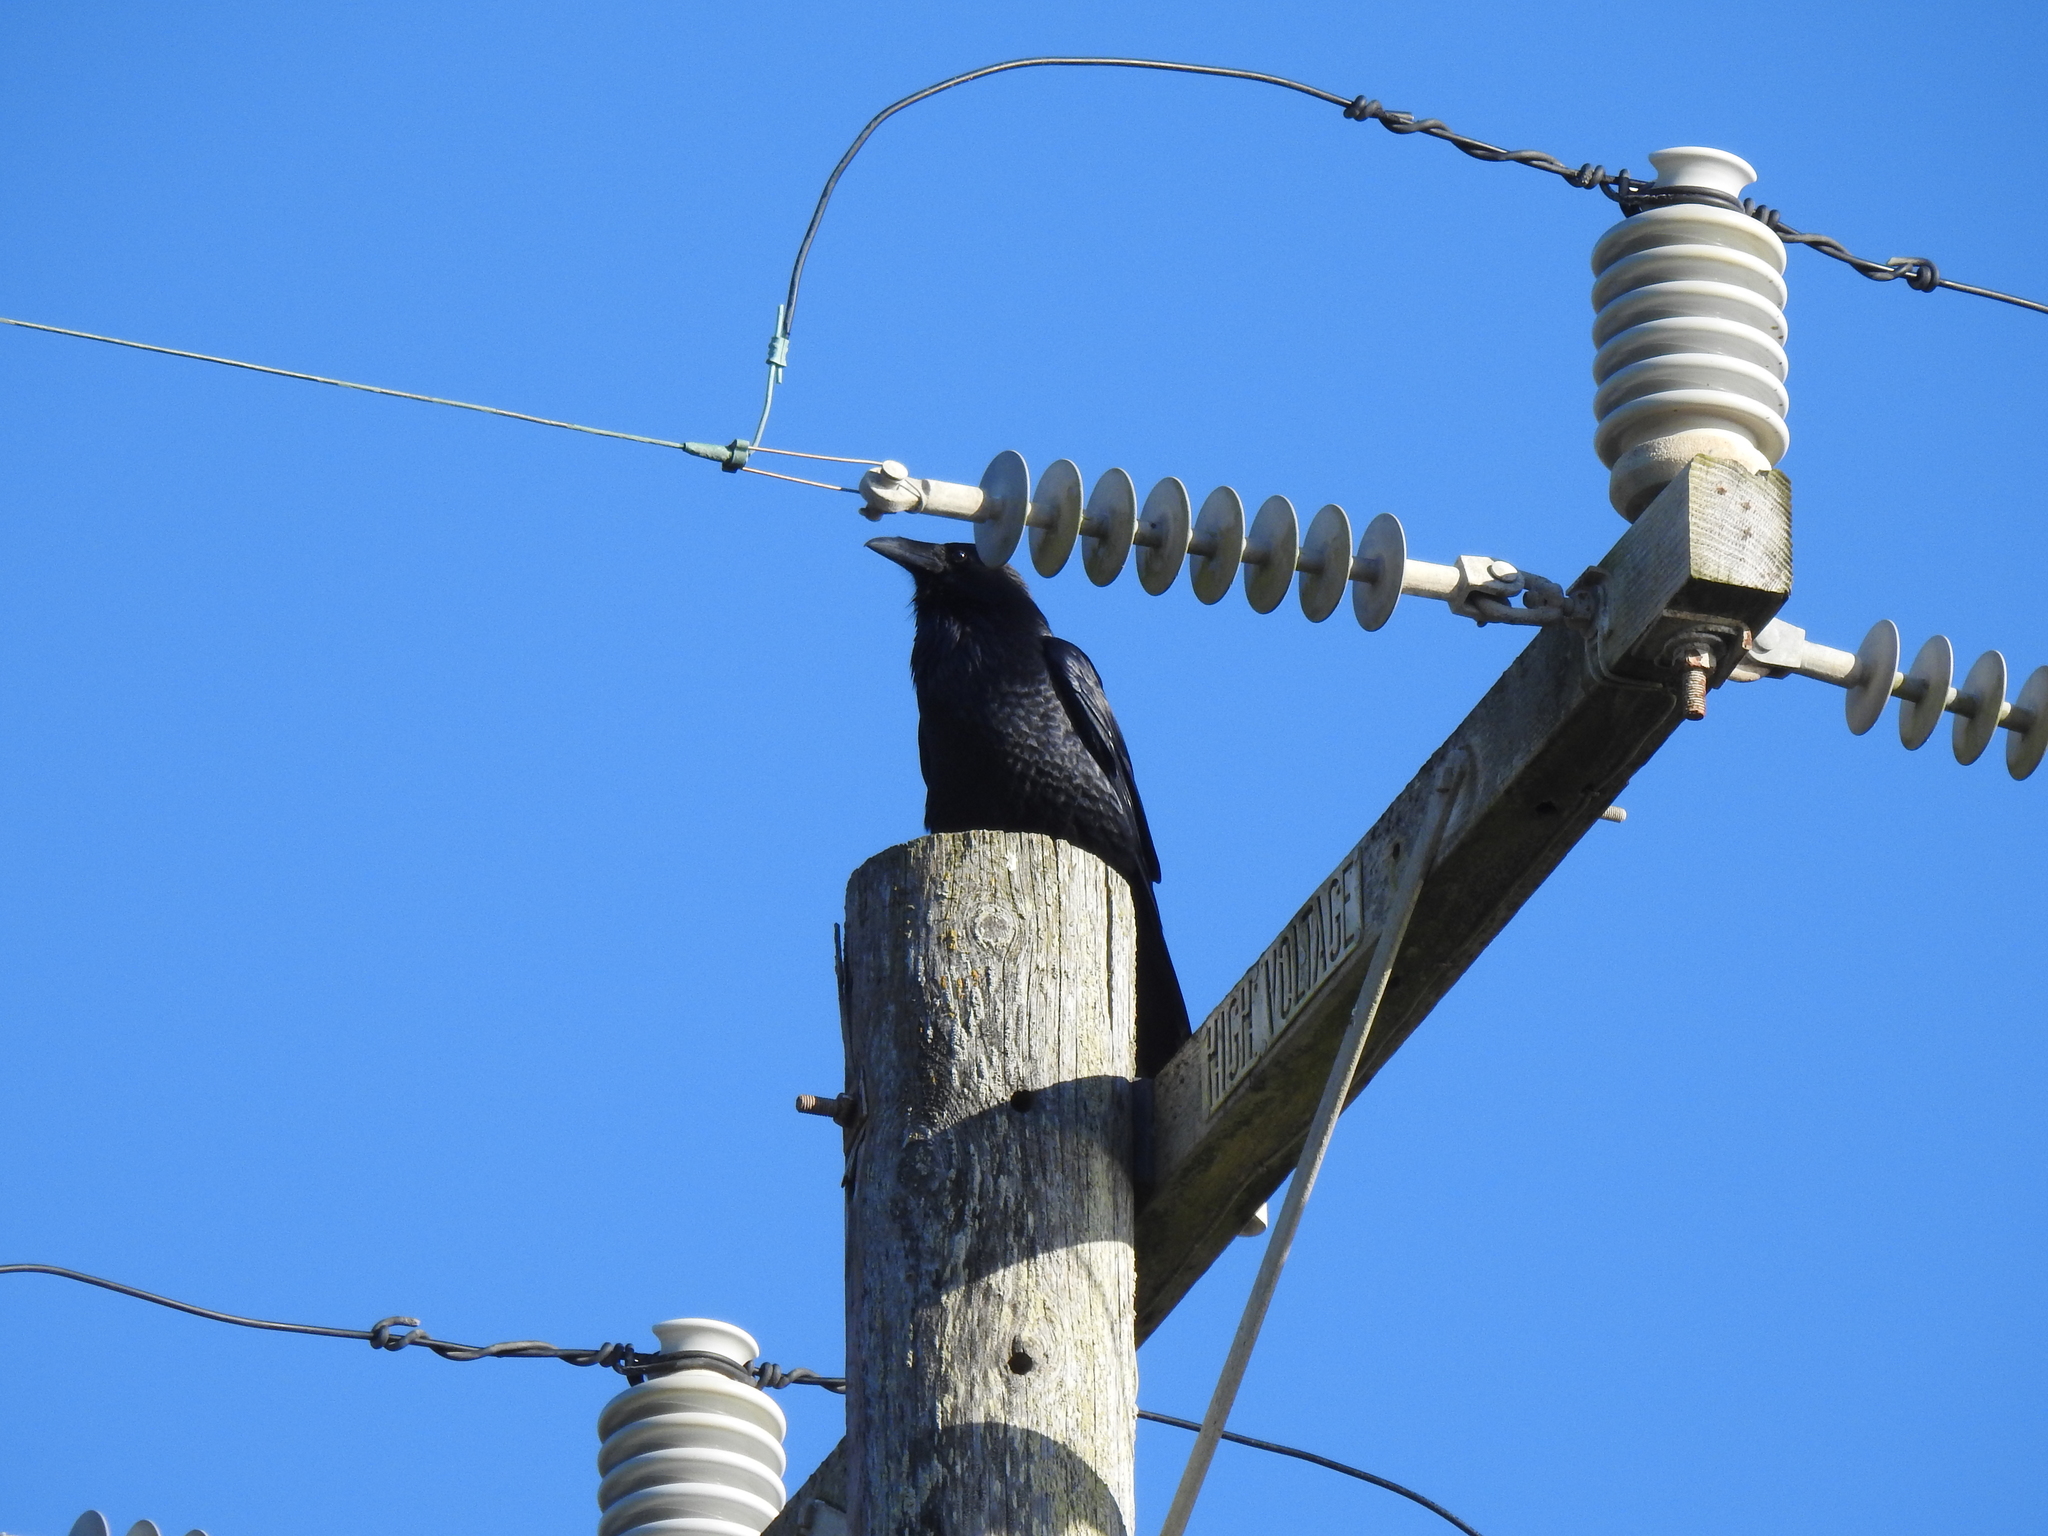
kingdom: Animalia
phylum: Chordata
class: Aves
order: Passeriformes
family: Corvidae
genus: Corvus
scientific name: Corvus corax
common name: Common raven
